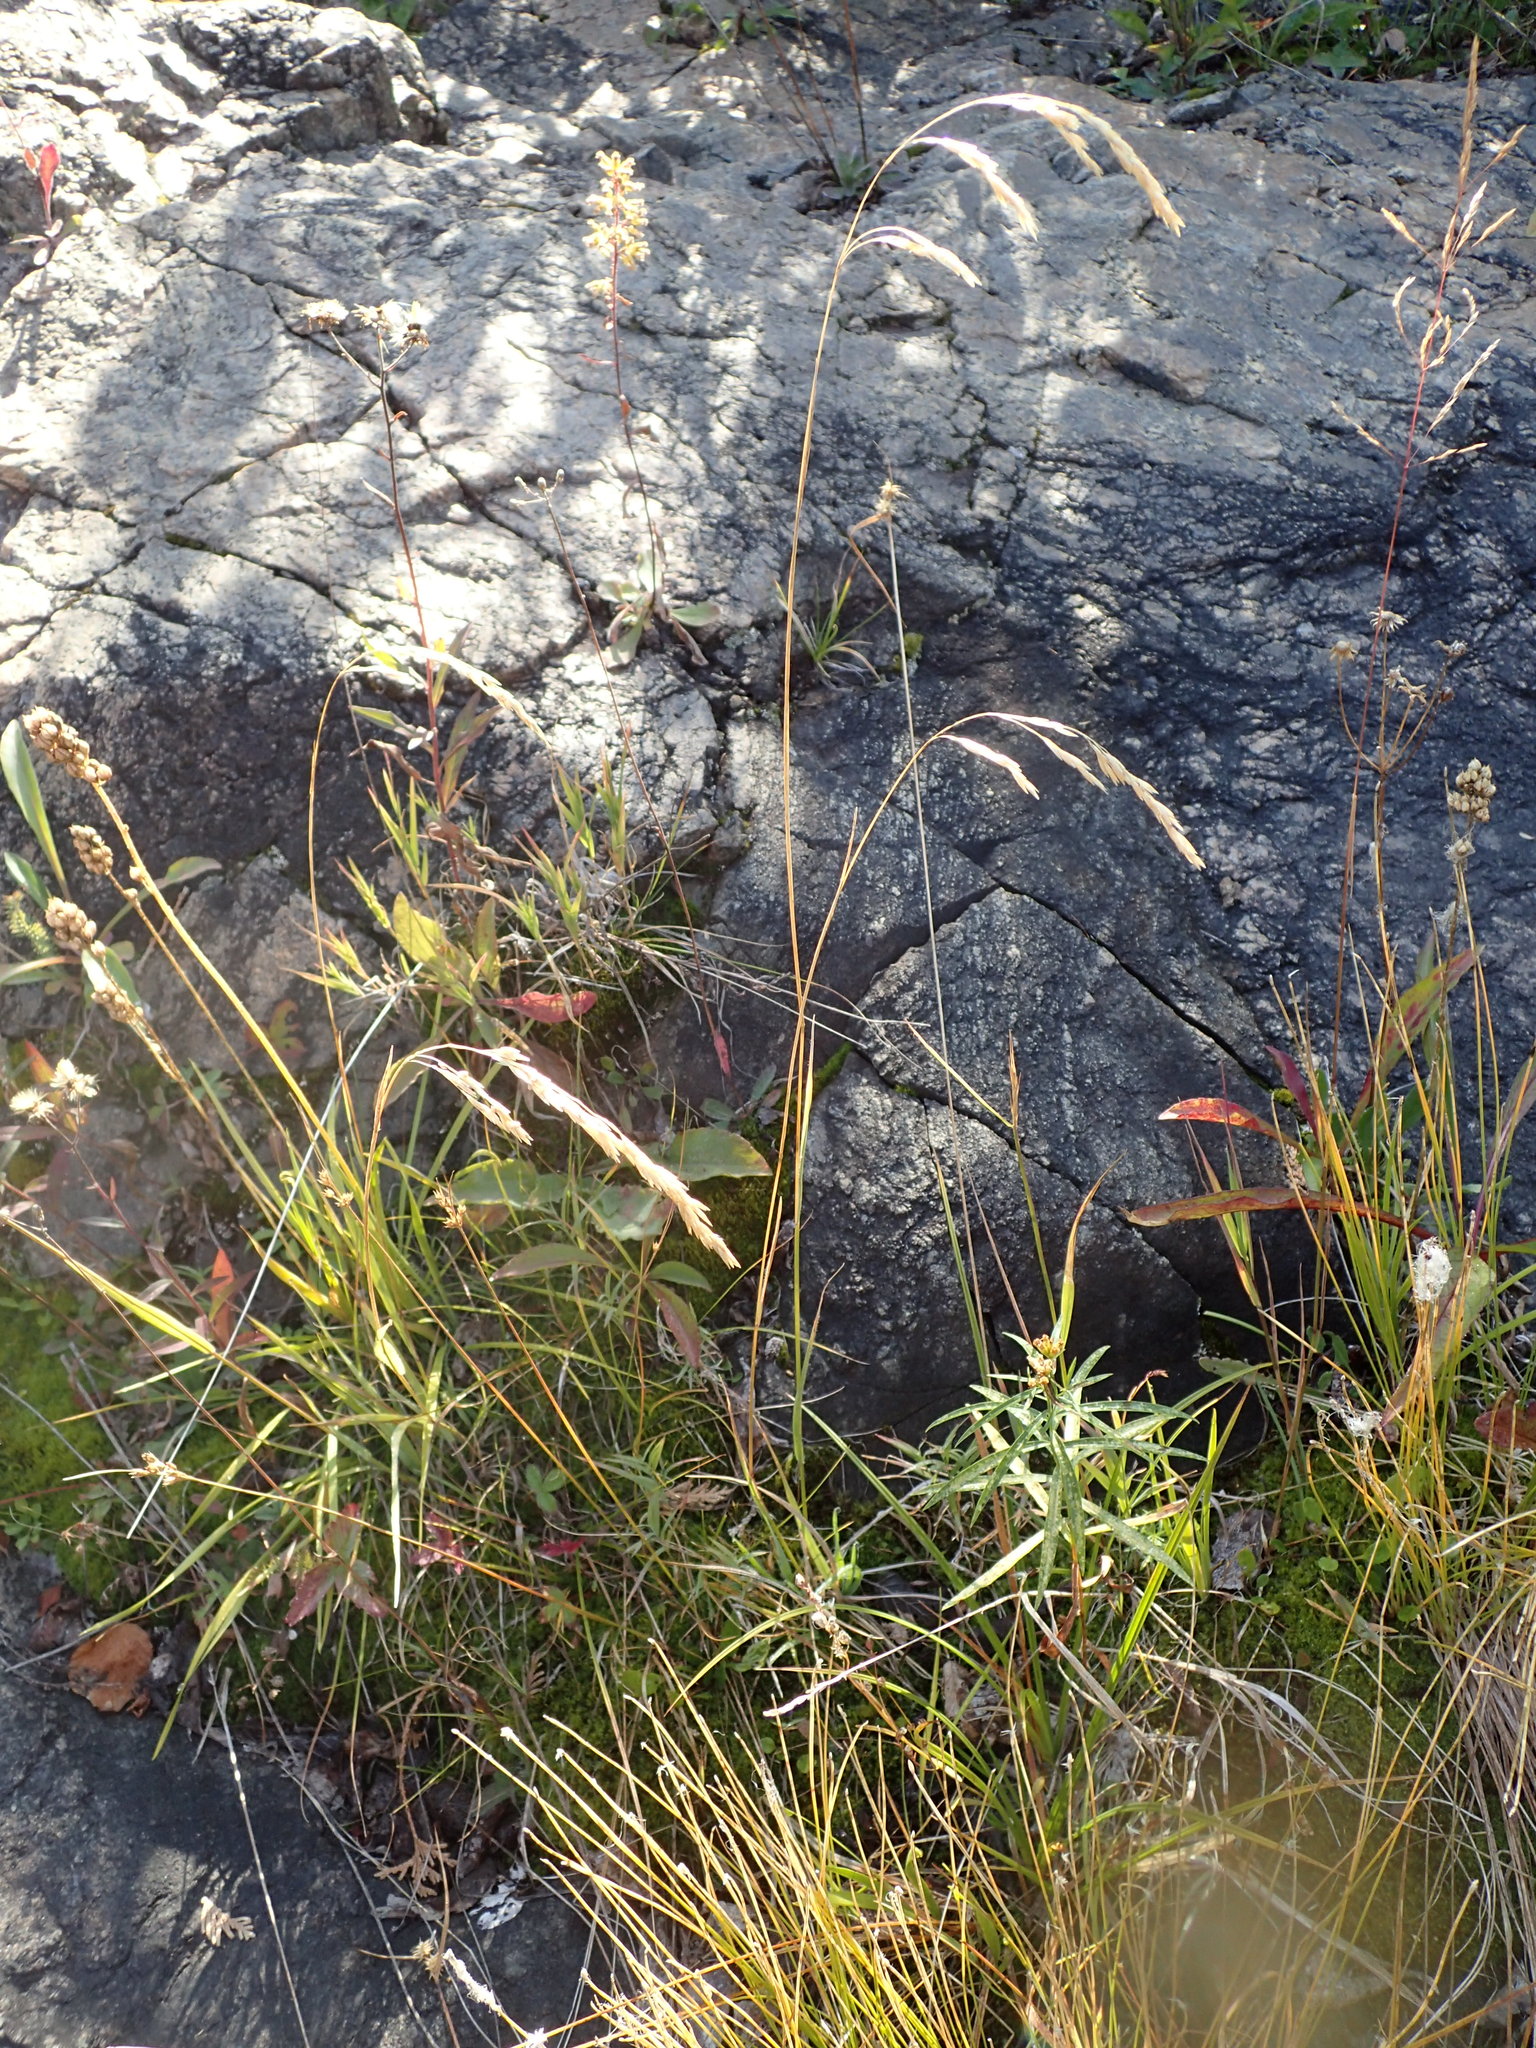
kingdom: Plantae
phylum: Tracheophyta
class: Liliopsida
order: Poales
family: Poaceae
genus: Graphephorum
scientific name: Graphephorum melicoides
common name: False melic
